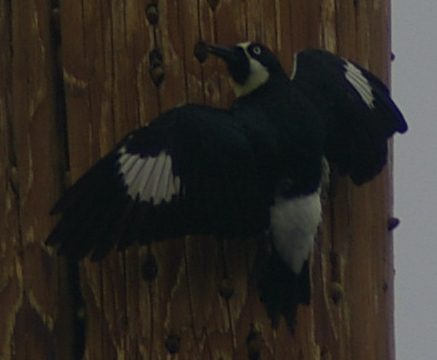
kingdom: Animalia
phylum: Chordata
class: Aves
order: Piciformes
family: Picidae
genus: Melanerpes
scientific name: Melanerpes formicivorus
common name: Acorn woodpecker
